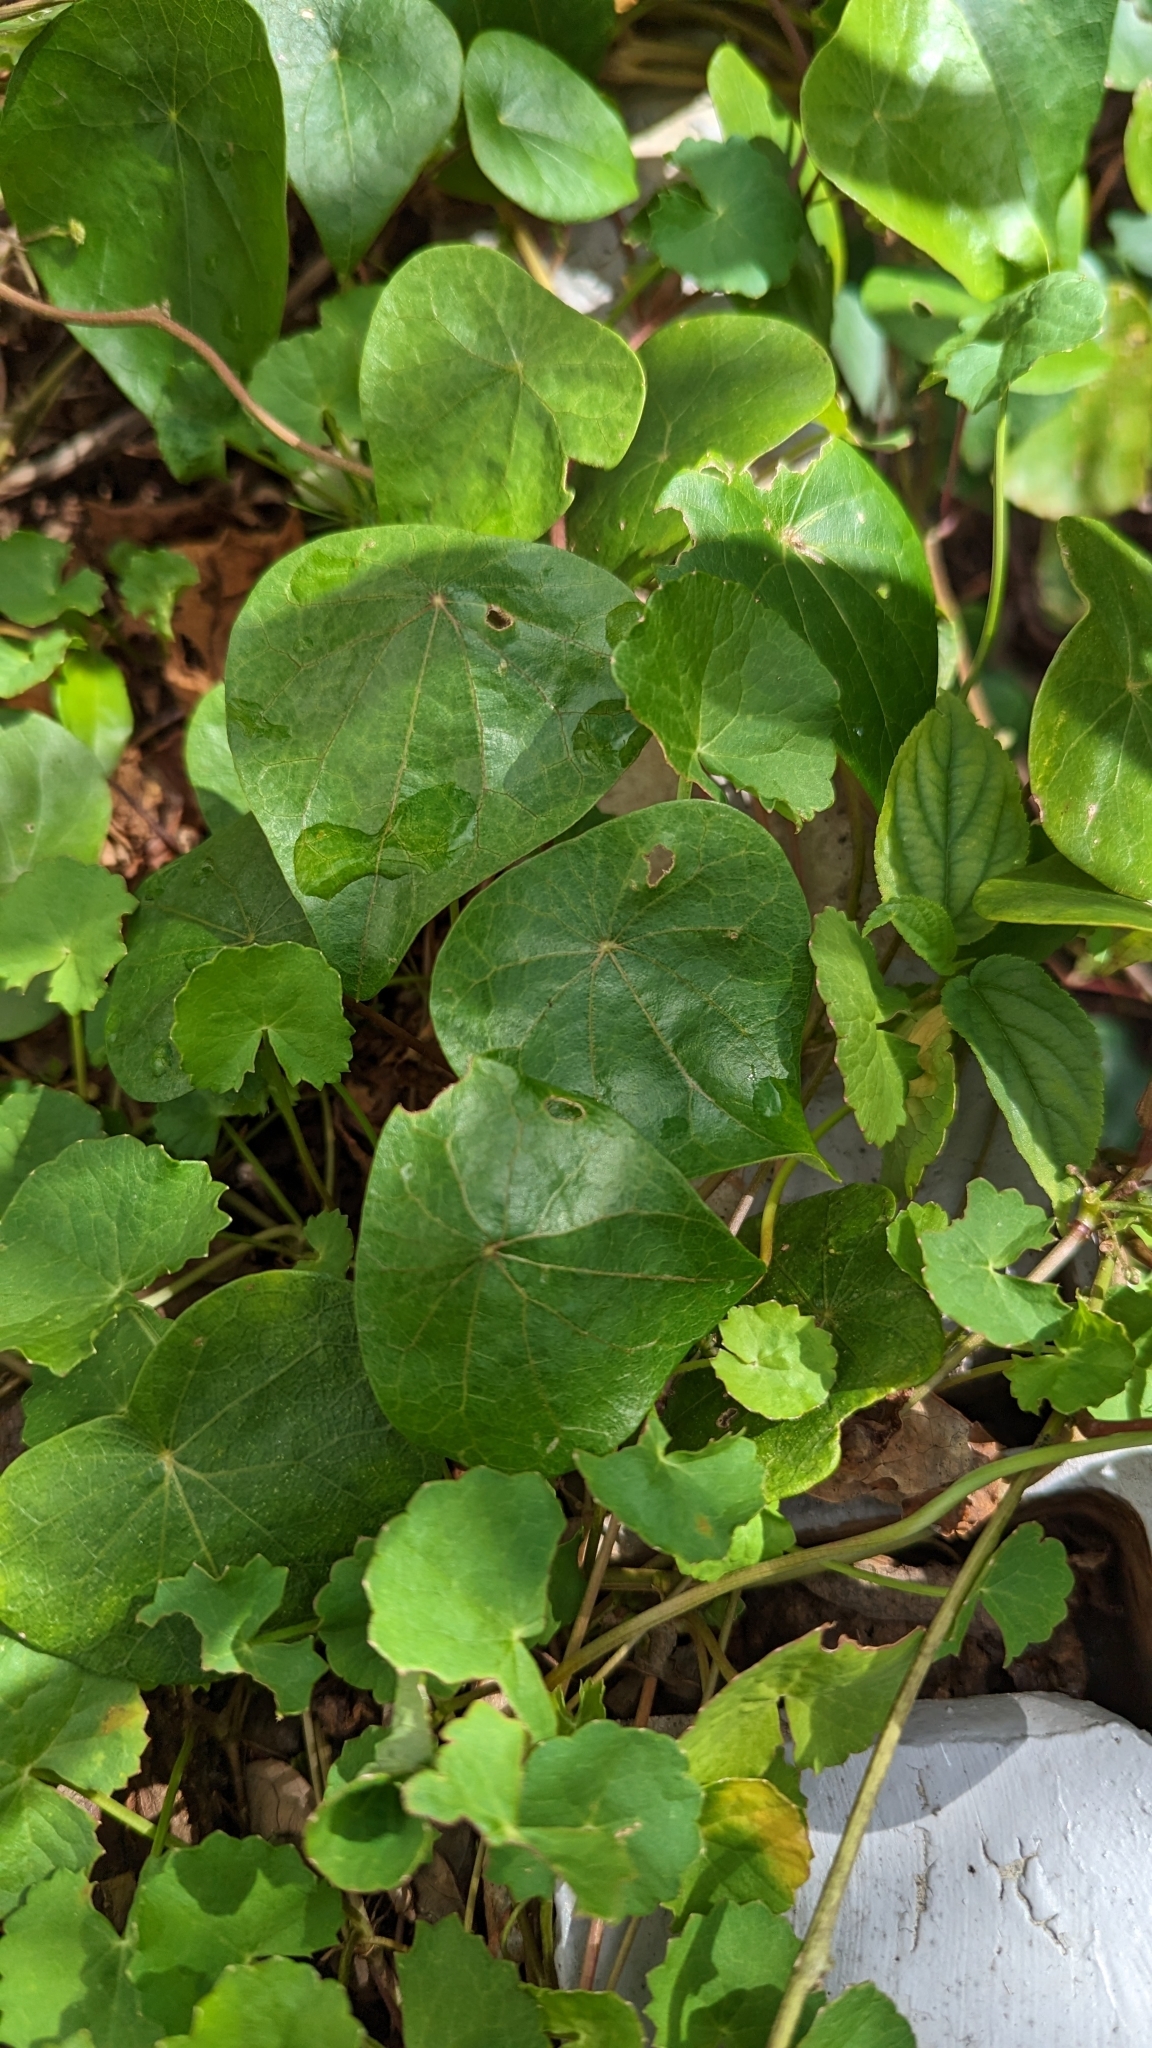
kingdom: Plantae
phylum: Tracheophyta
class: Magnoliopsida
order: Ranunculales
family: Menispermaceae
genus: Stephania
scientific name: Stephania japonica
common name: Snake vine
